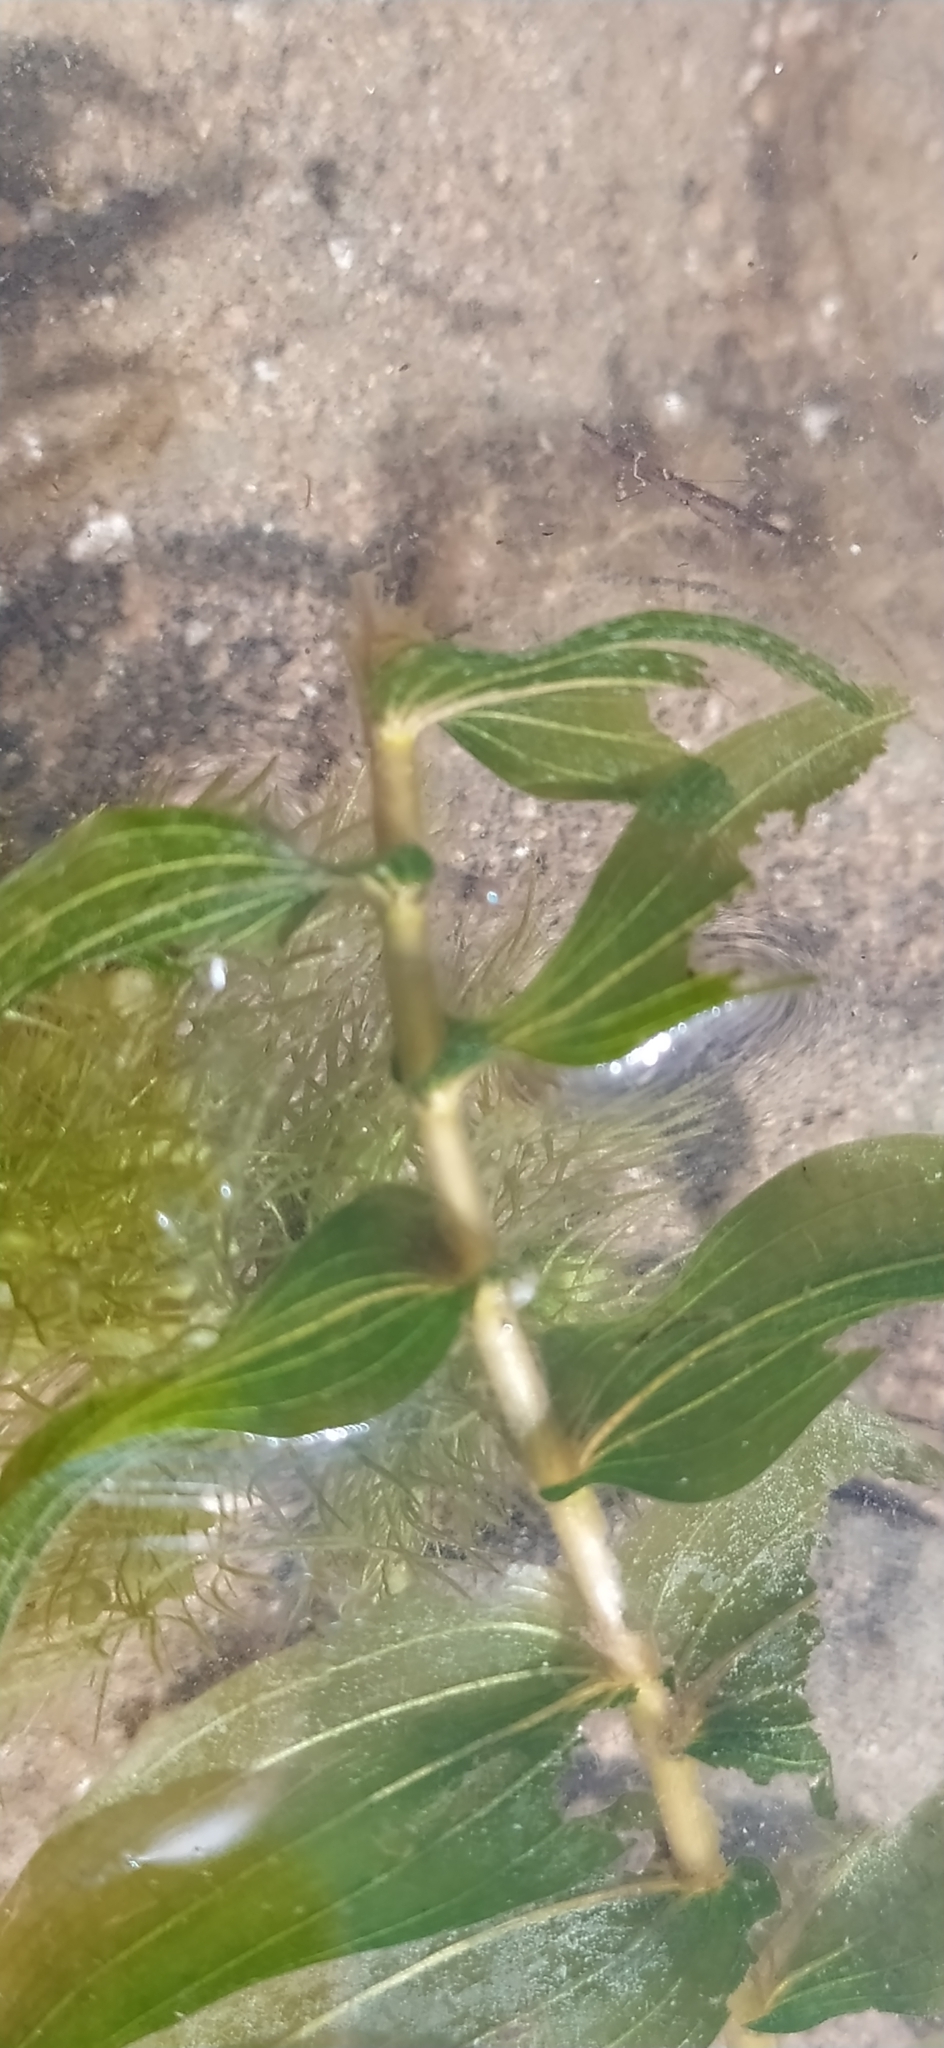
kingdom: Plantae
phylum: Tracheophyta
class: Liliopsida
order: Alismatales
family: Potamogetonaceae
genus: Potamogeton
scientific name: Potamogeton perfoliatus
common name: Perfoliate pondweed
